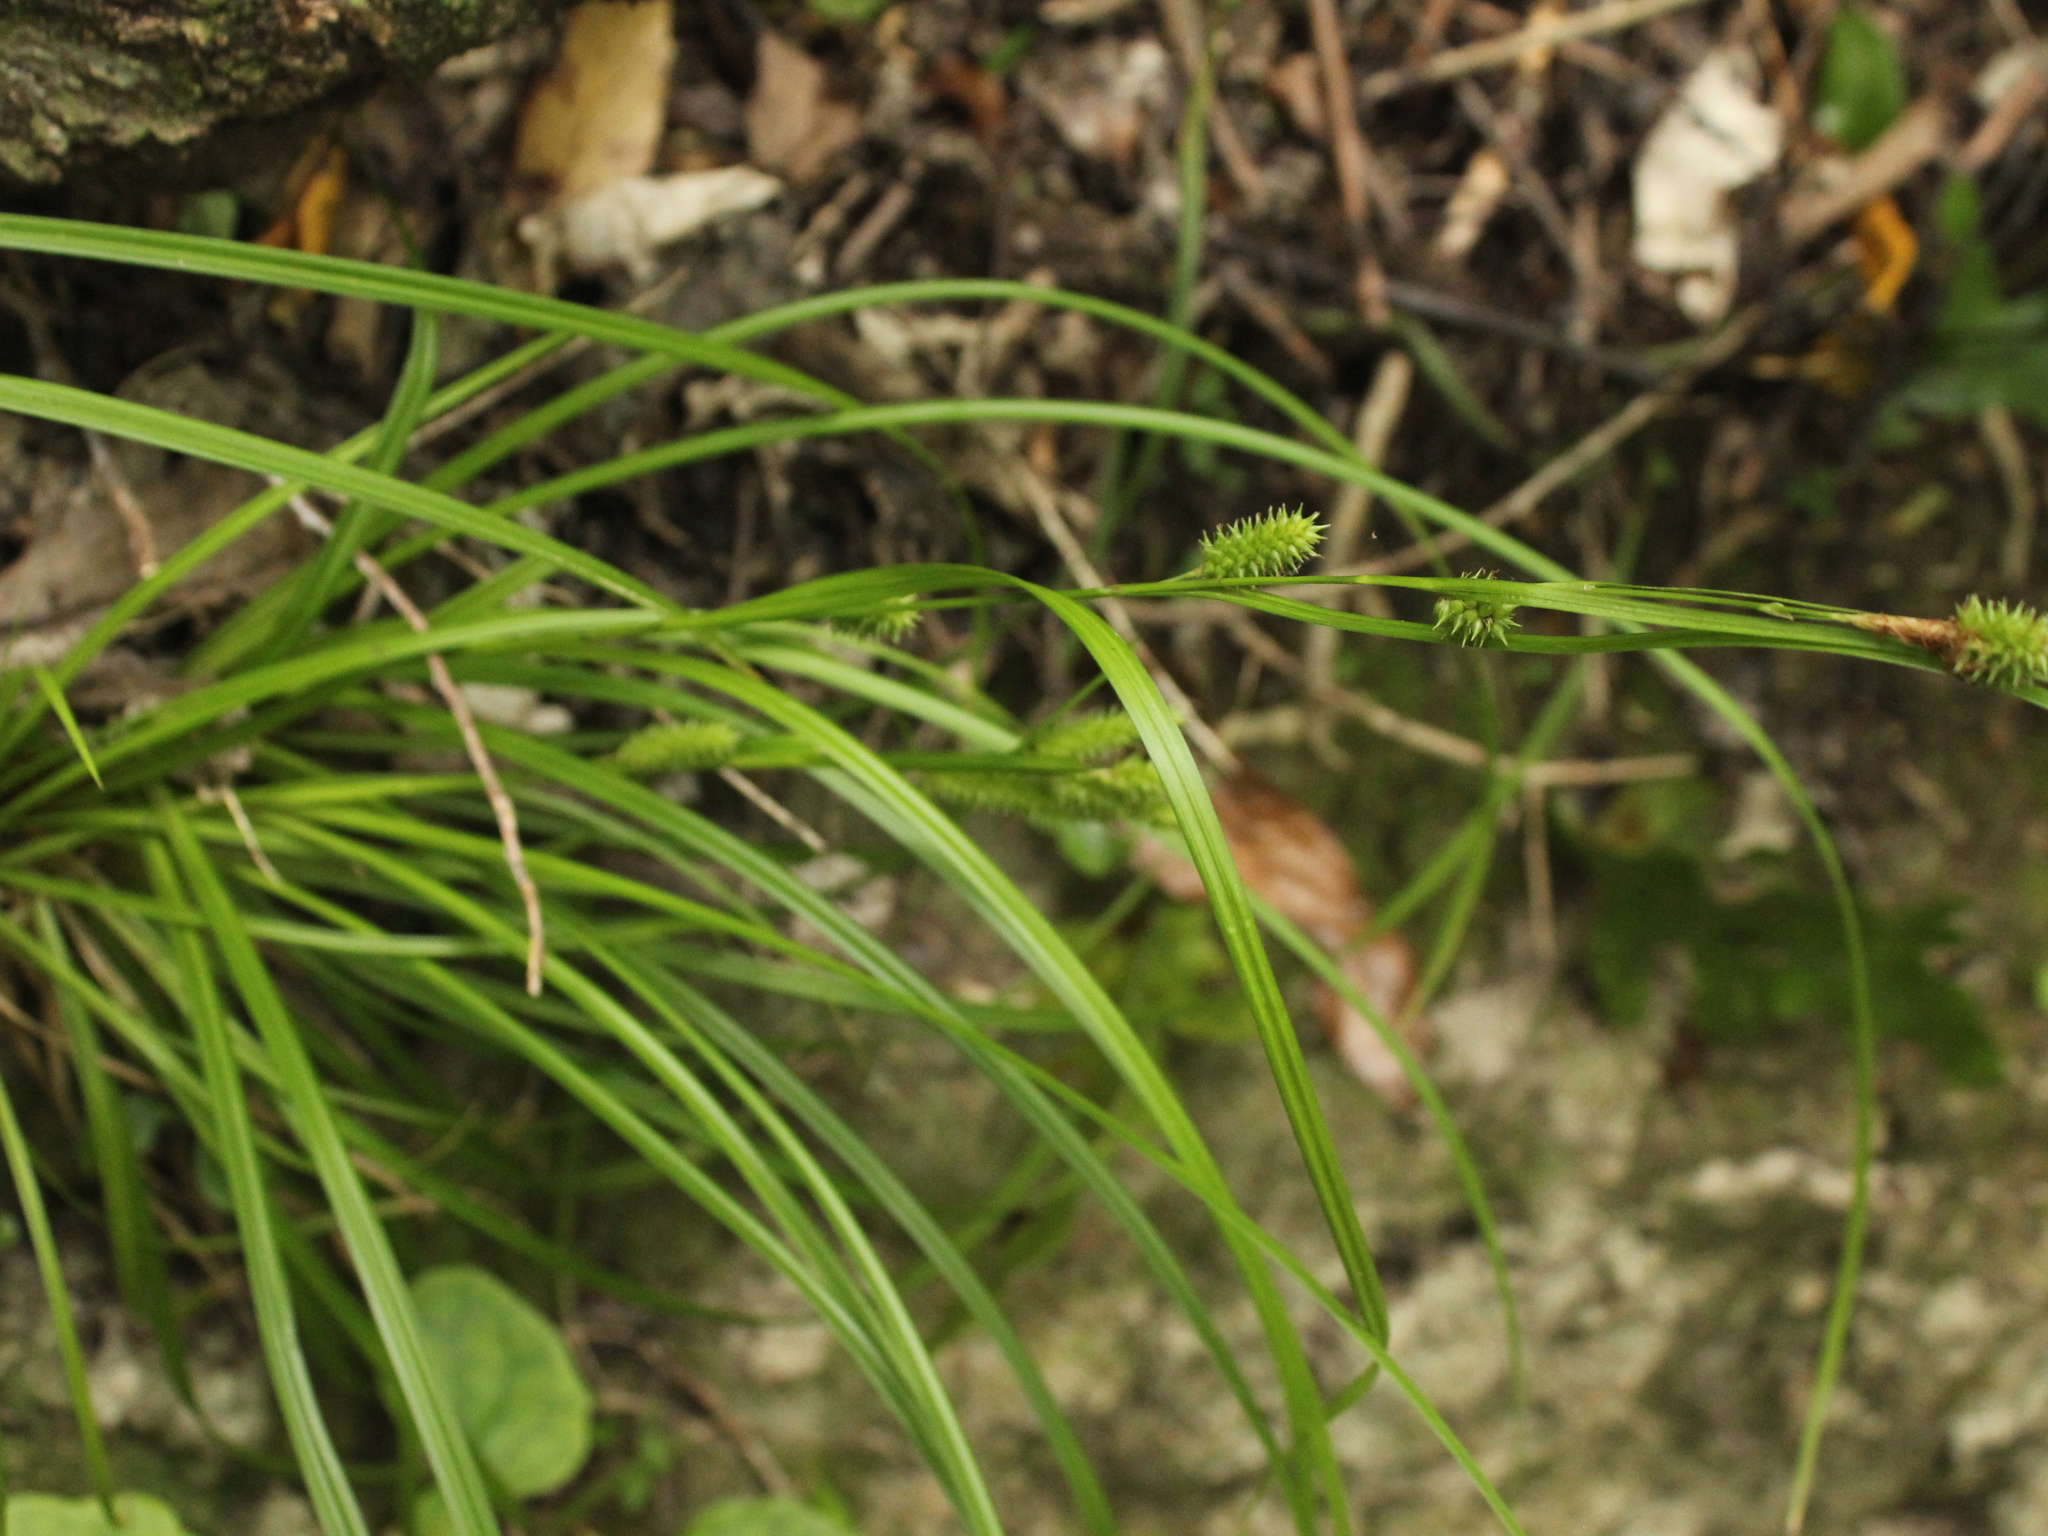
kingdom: Plantae
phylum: Tracheophyta
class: Liliopsida
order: Poales
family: Cyperaceae
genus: Carex
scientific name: Carex forsteri
